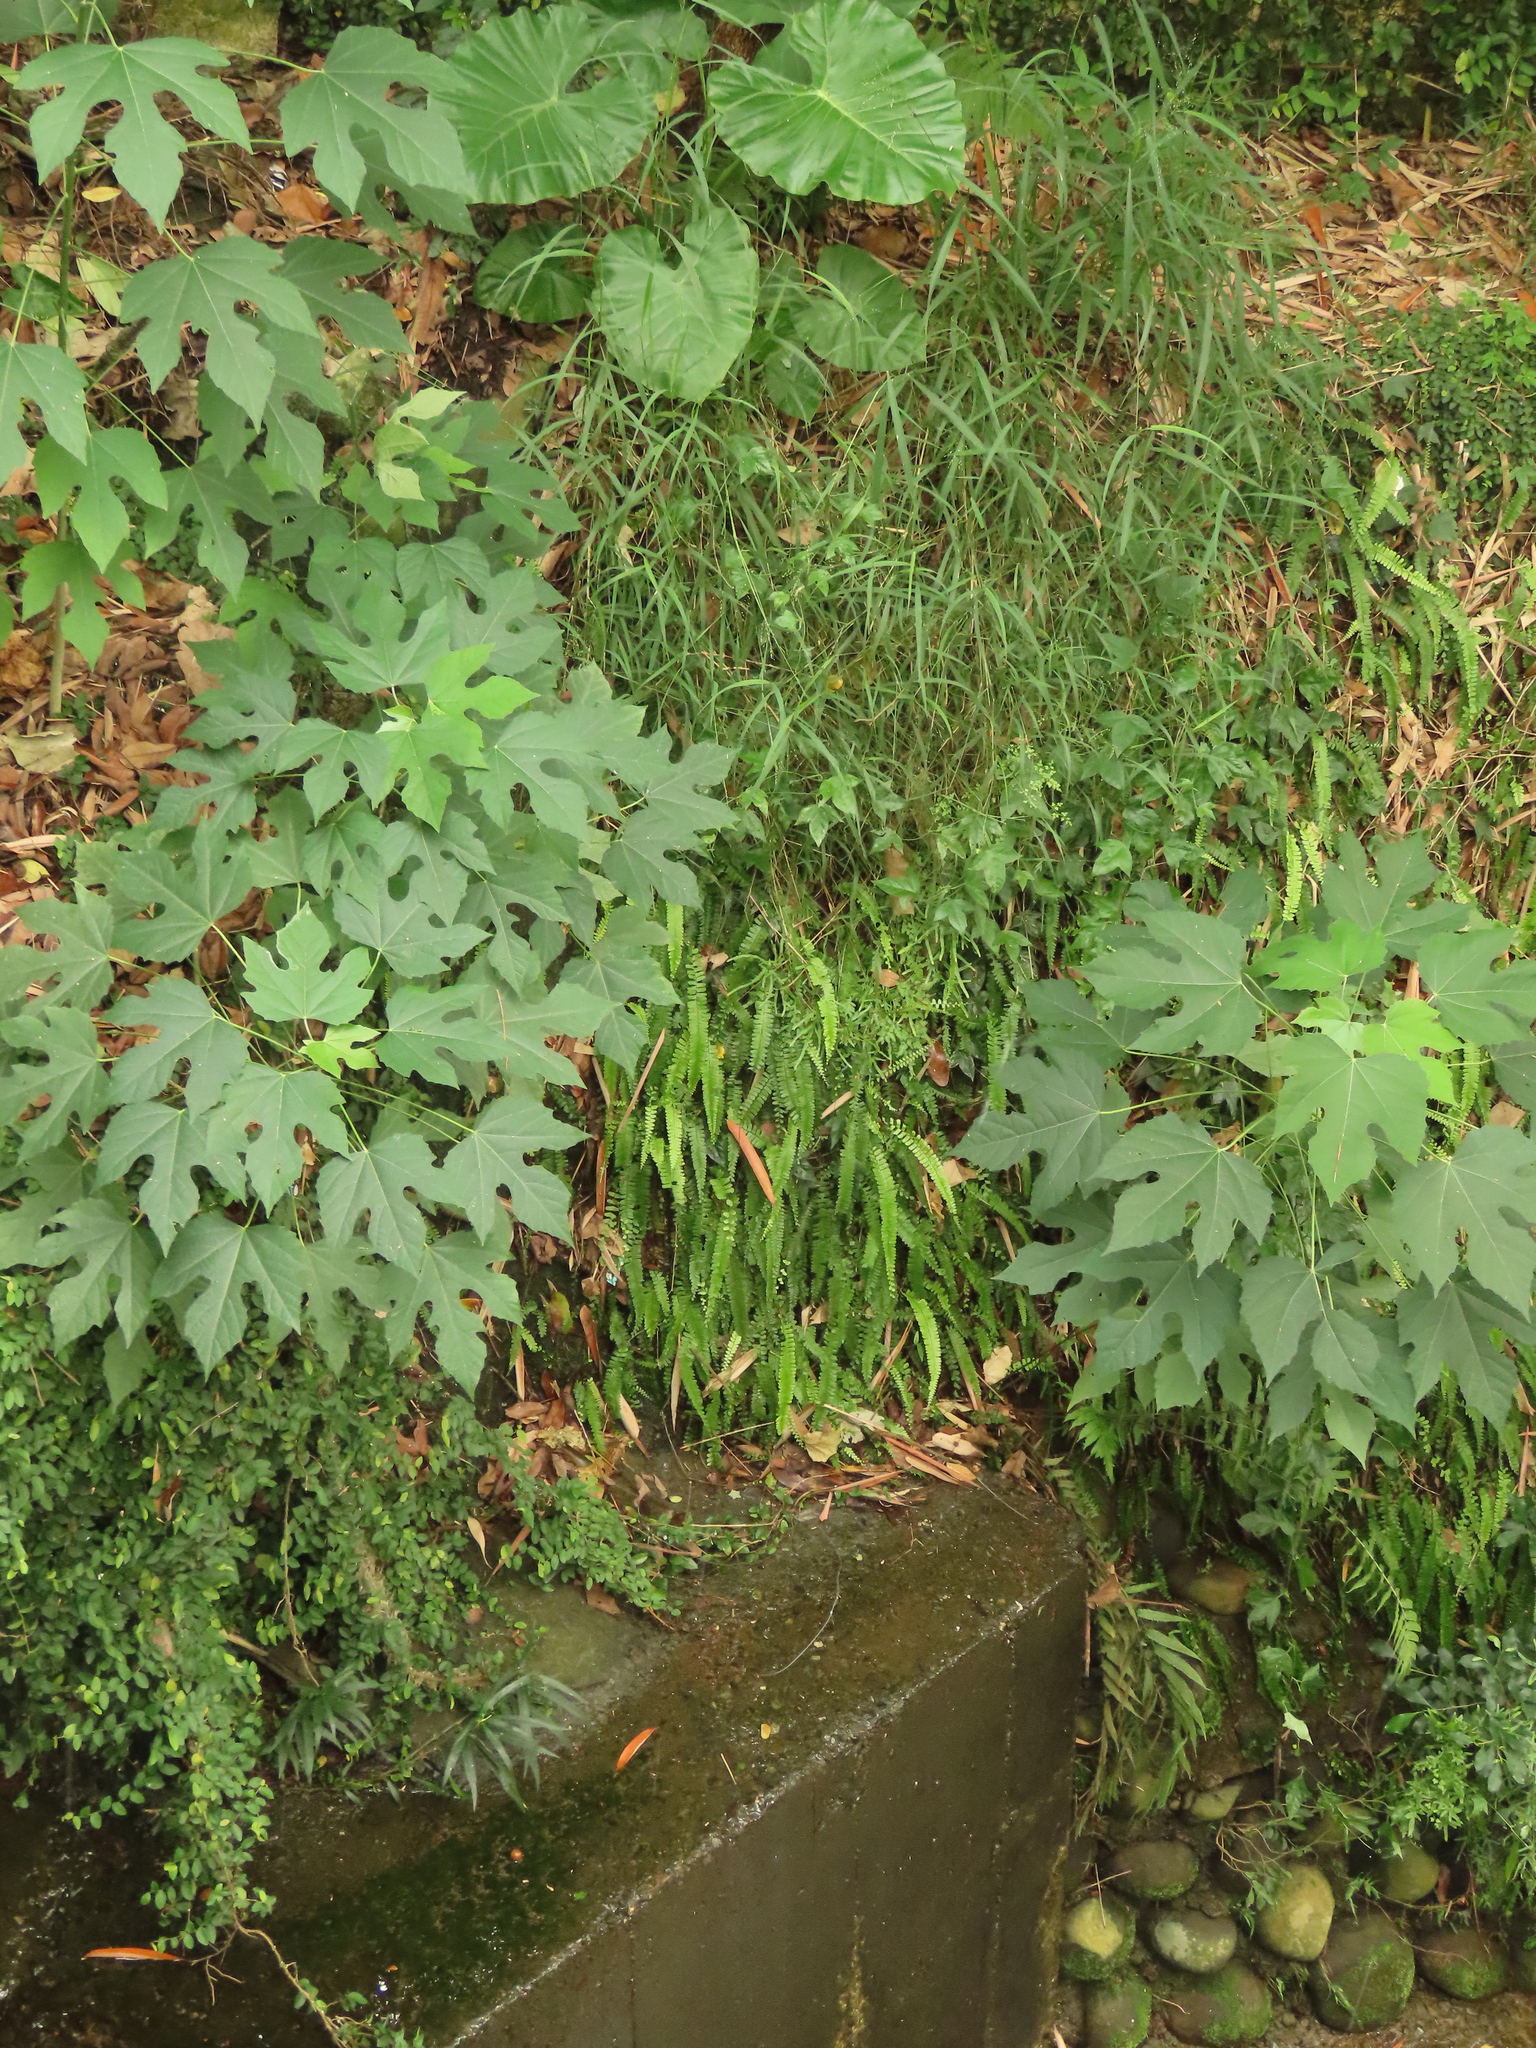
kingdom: Plantae
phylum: Tracheophyta
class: Polypodiopsida
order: Polypodiales
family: Pteridaceae
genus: Adiantum
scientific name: Adiantum caudatum
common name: Tailed maidenhair
